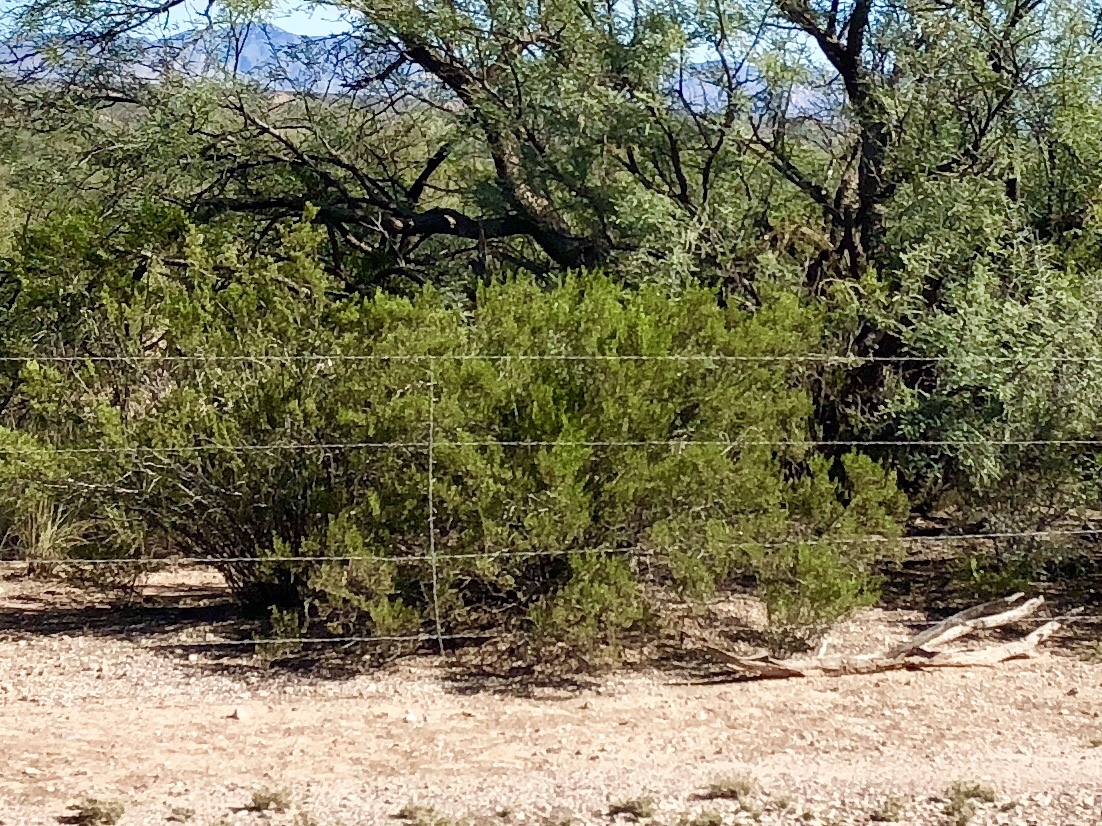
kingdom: Plantae
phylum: Tracheophyta
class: Magnoliopsida
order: Zygophyllales
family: Zygophyllaceae
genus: Larrea
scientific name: Larrea tridentata
